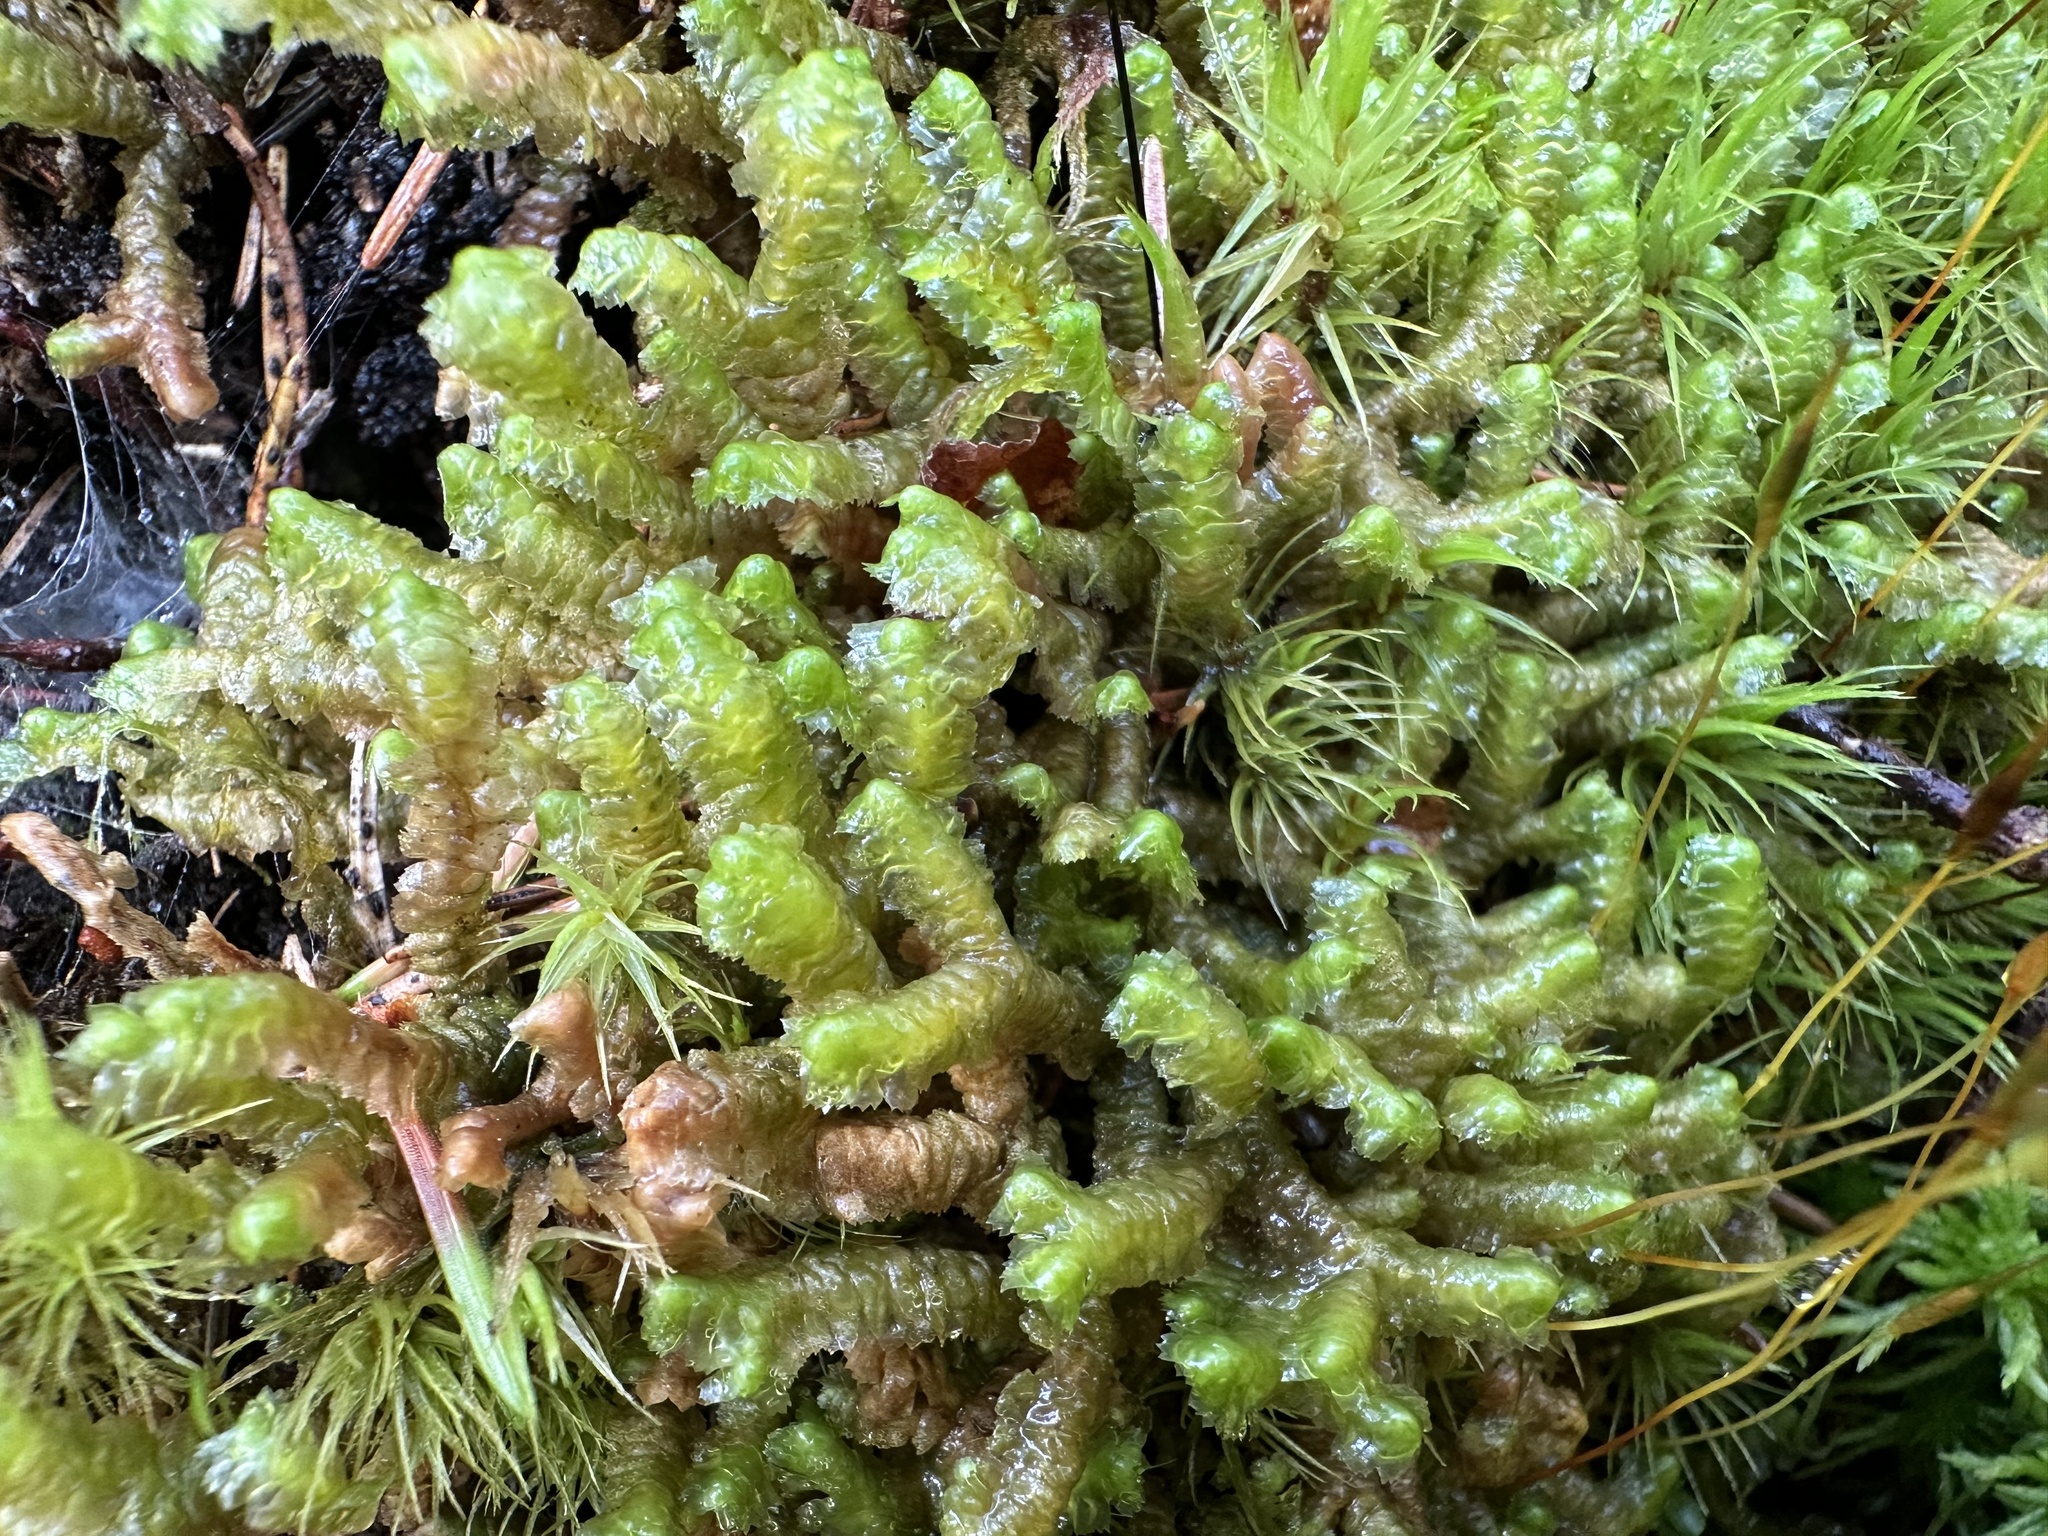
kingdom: Plantae
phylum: Marchantiophyta
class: Jungermanniopsida
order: Jungermanniales
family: Lepidoziaceae
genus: Bazzania
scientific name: Bazzania trilobata
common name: Three-lobed whipwort
